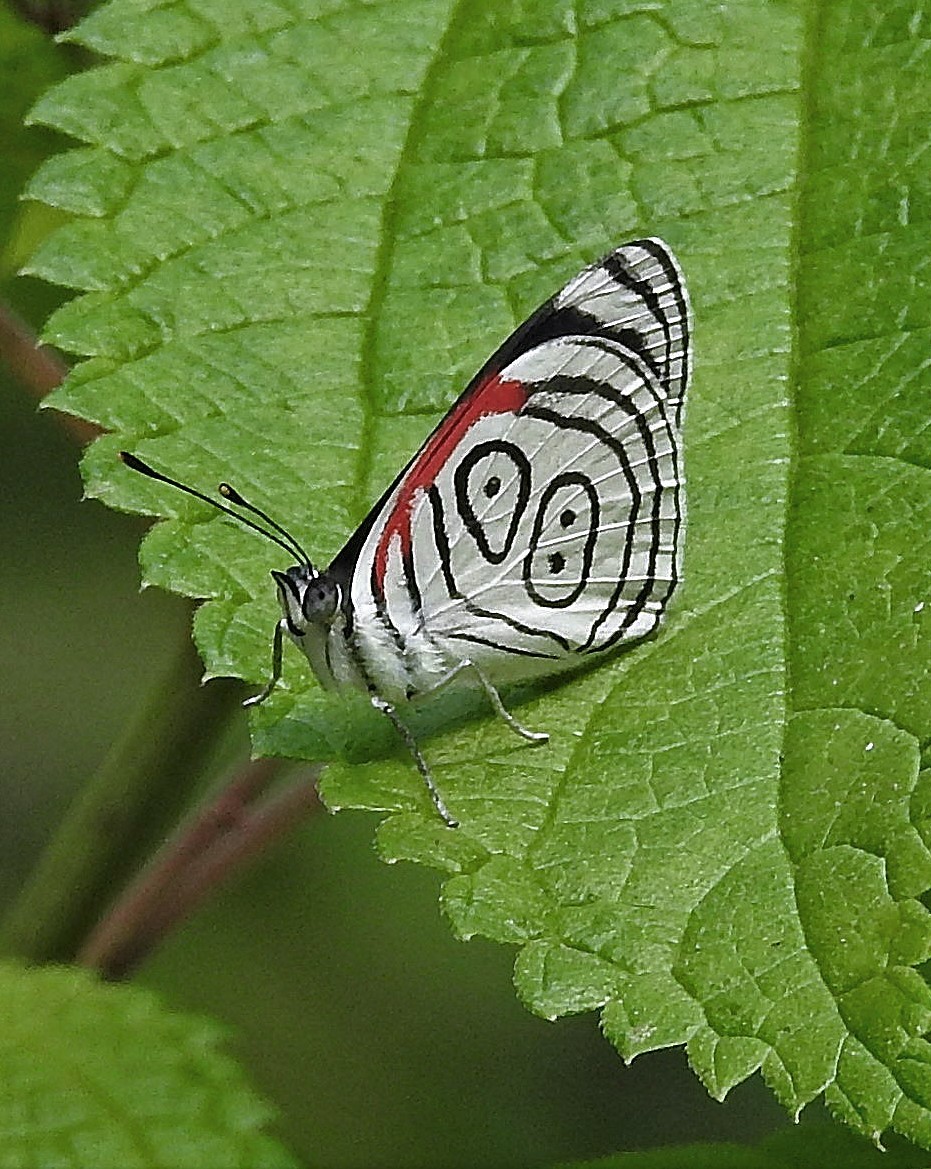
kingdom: Animalia
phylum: Arthropoda
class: Insecta
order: Lepidoptera
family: Nymphalidae
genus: Diaethria
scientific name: Diaethria neglecta
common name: Neglected eighty-eight
